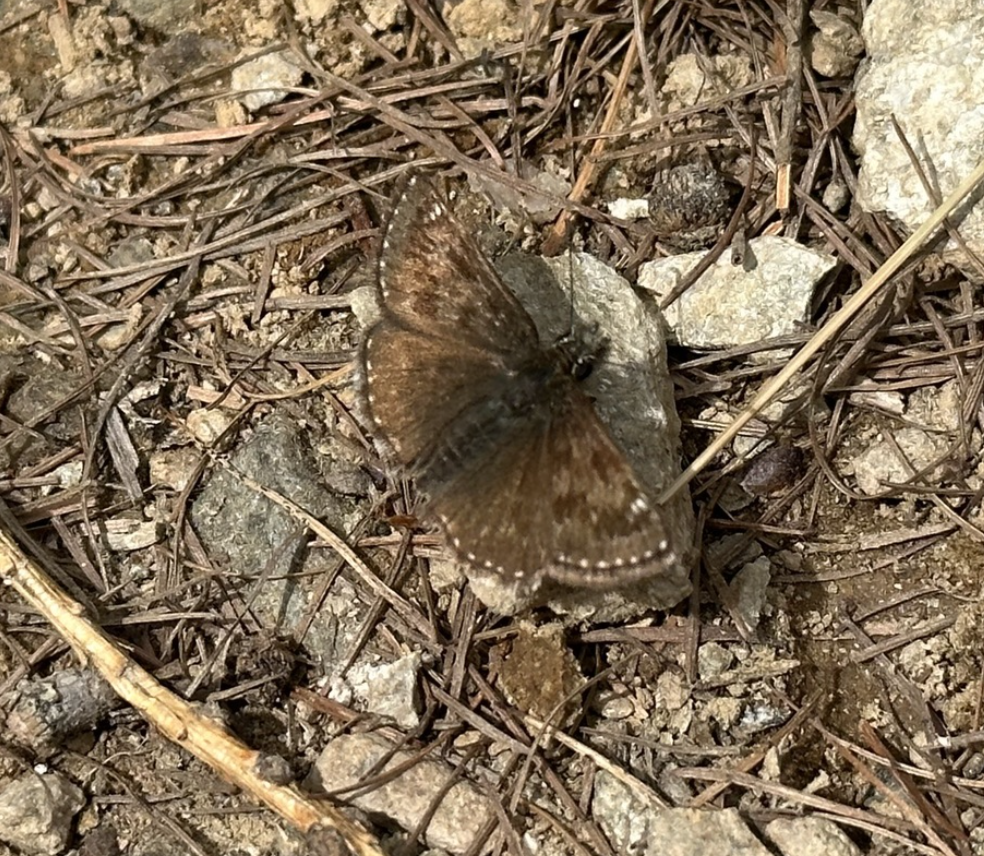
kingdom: Animalia
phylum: Arthropoda
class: Insecta
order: Lepidoptera
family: Hesperiidae
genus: Erynnis
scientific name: Erynnis tages
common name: Dingy skipper
